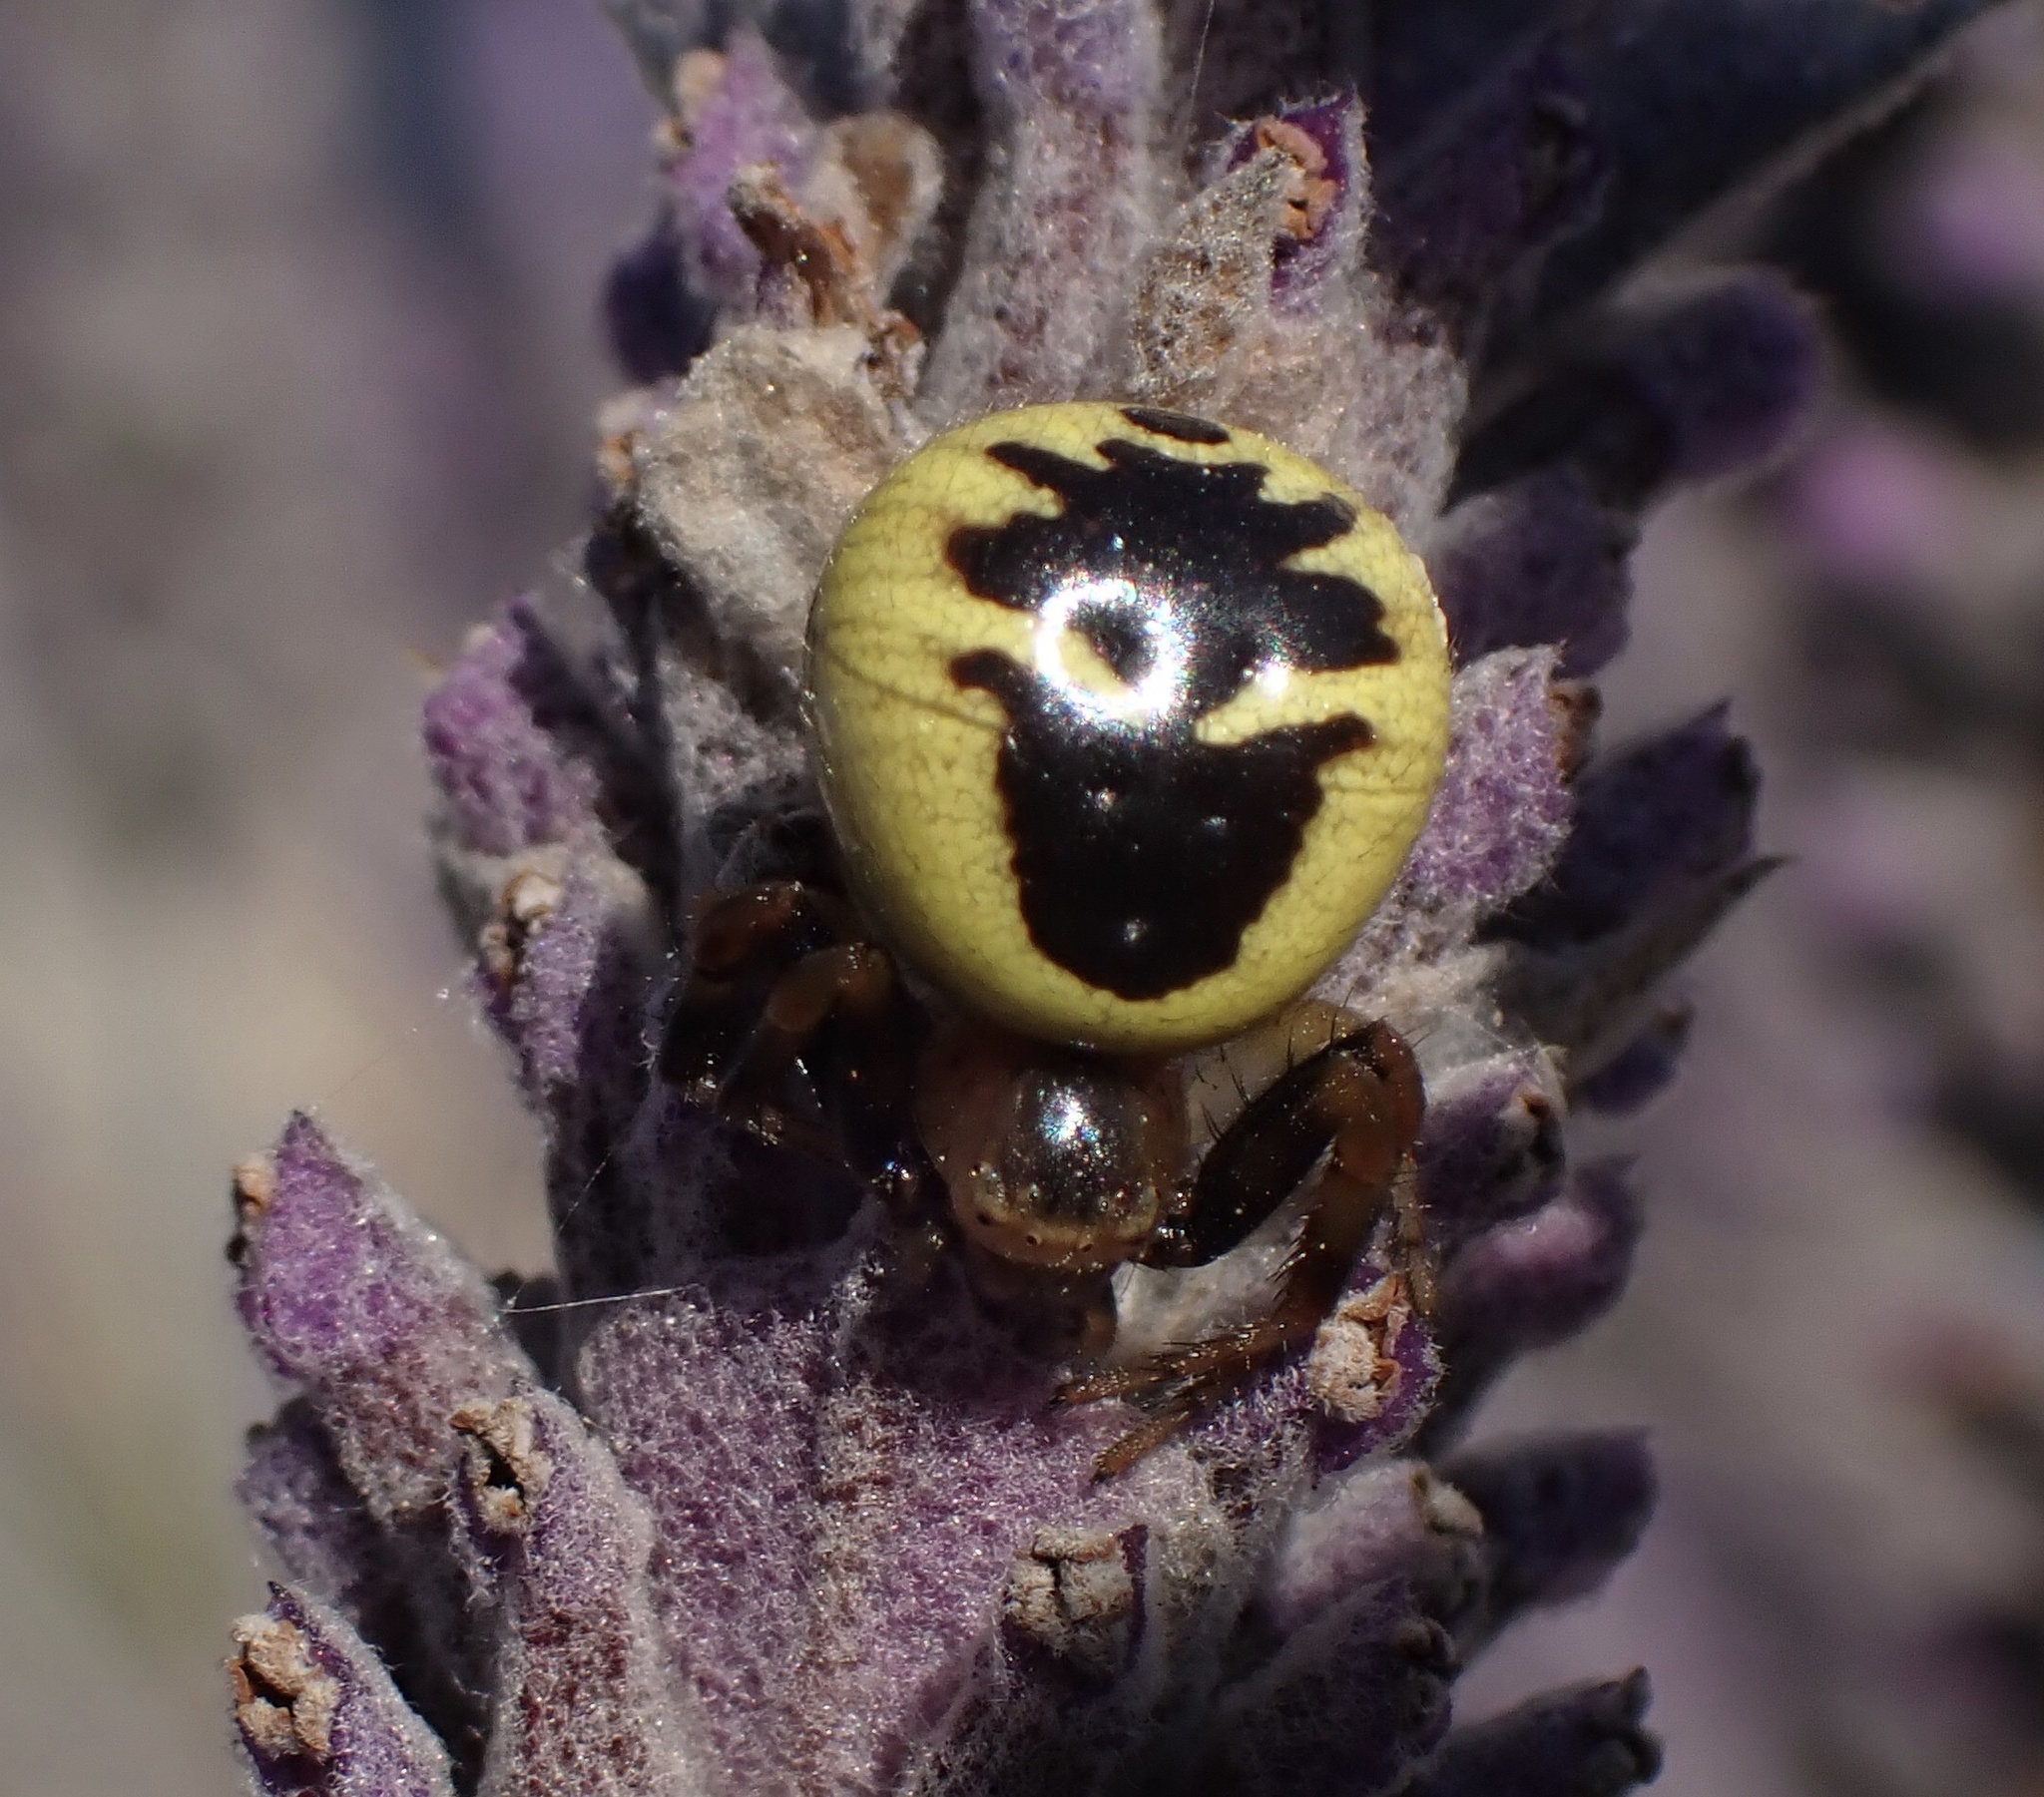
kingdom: Animalia
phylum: Arthropoda
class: Arachnida
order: Araneae
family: Thomisidae
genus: Synema
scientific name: Synema globosum
